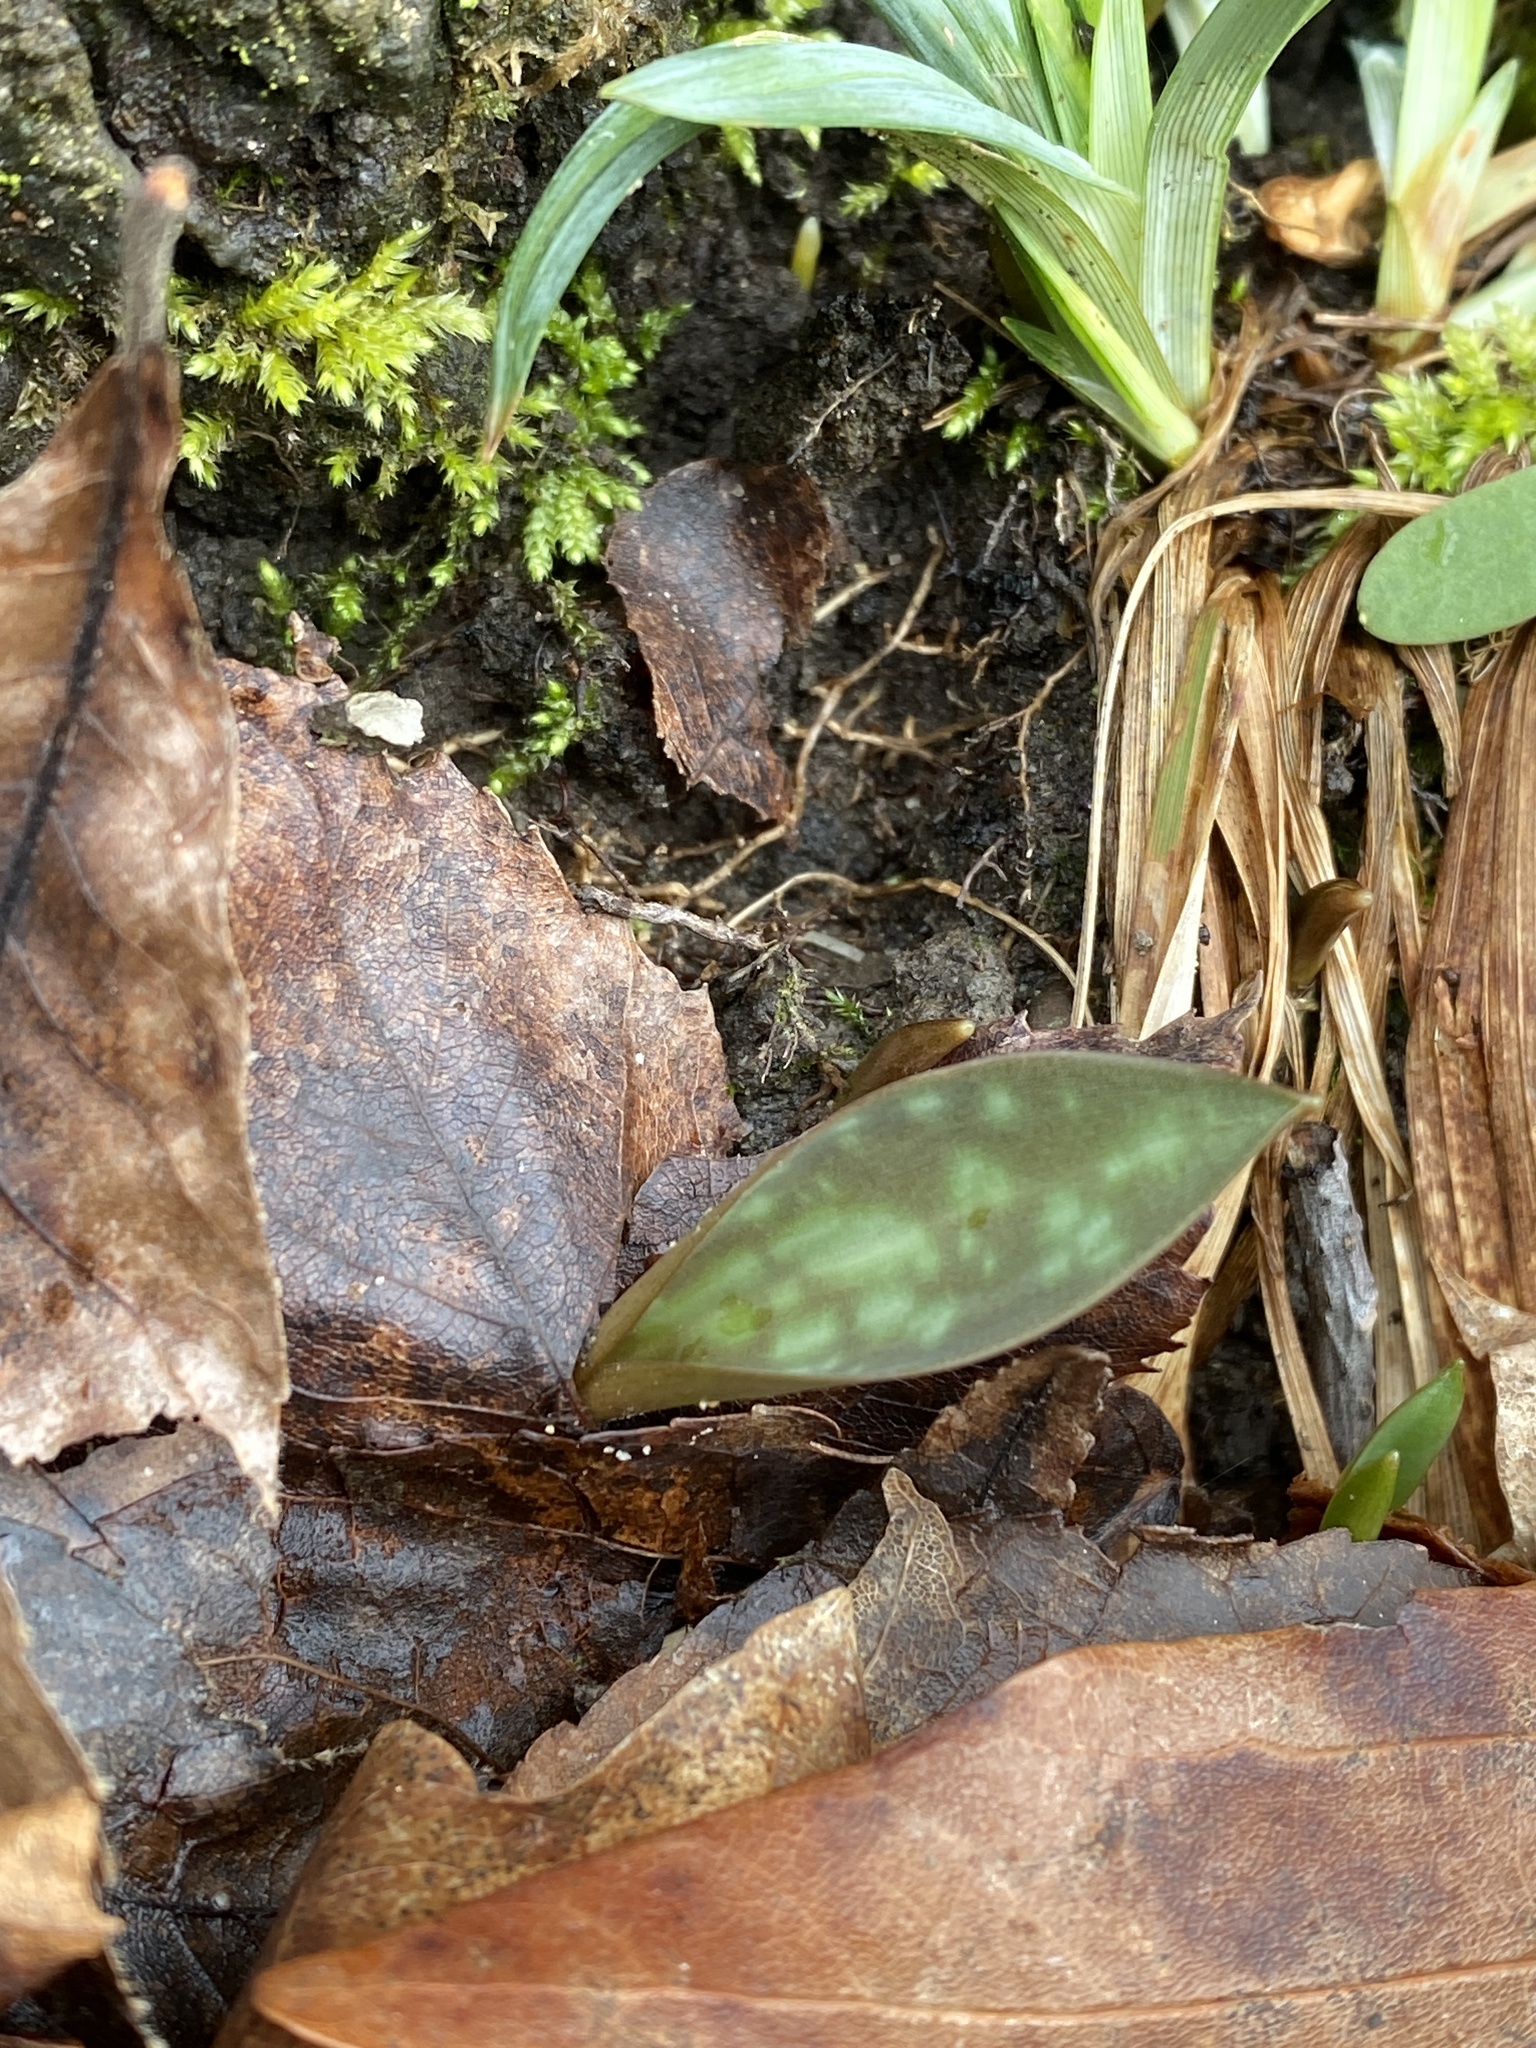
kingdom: Plantae
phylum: Tracheophyta
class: Liliopsida
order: Liliales
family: Liliaceae
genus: Erythronium
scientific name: Erythronium americanum
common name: Yellow adder's-tongue
